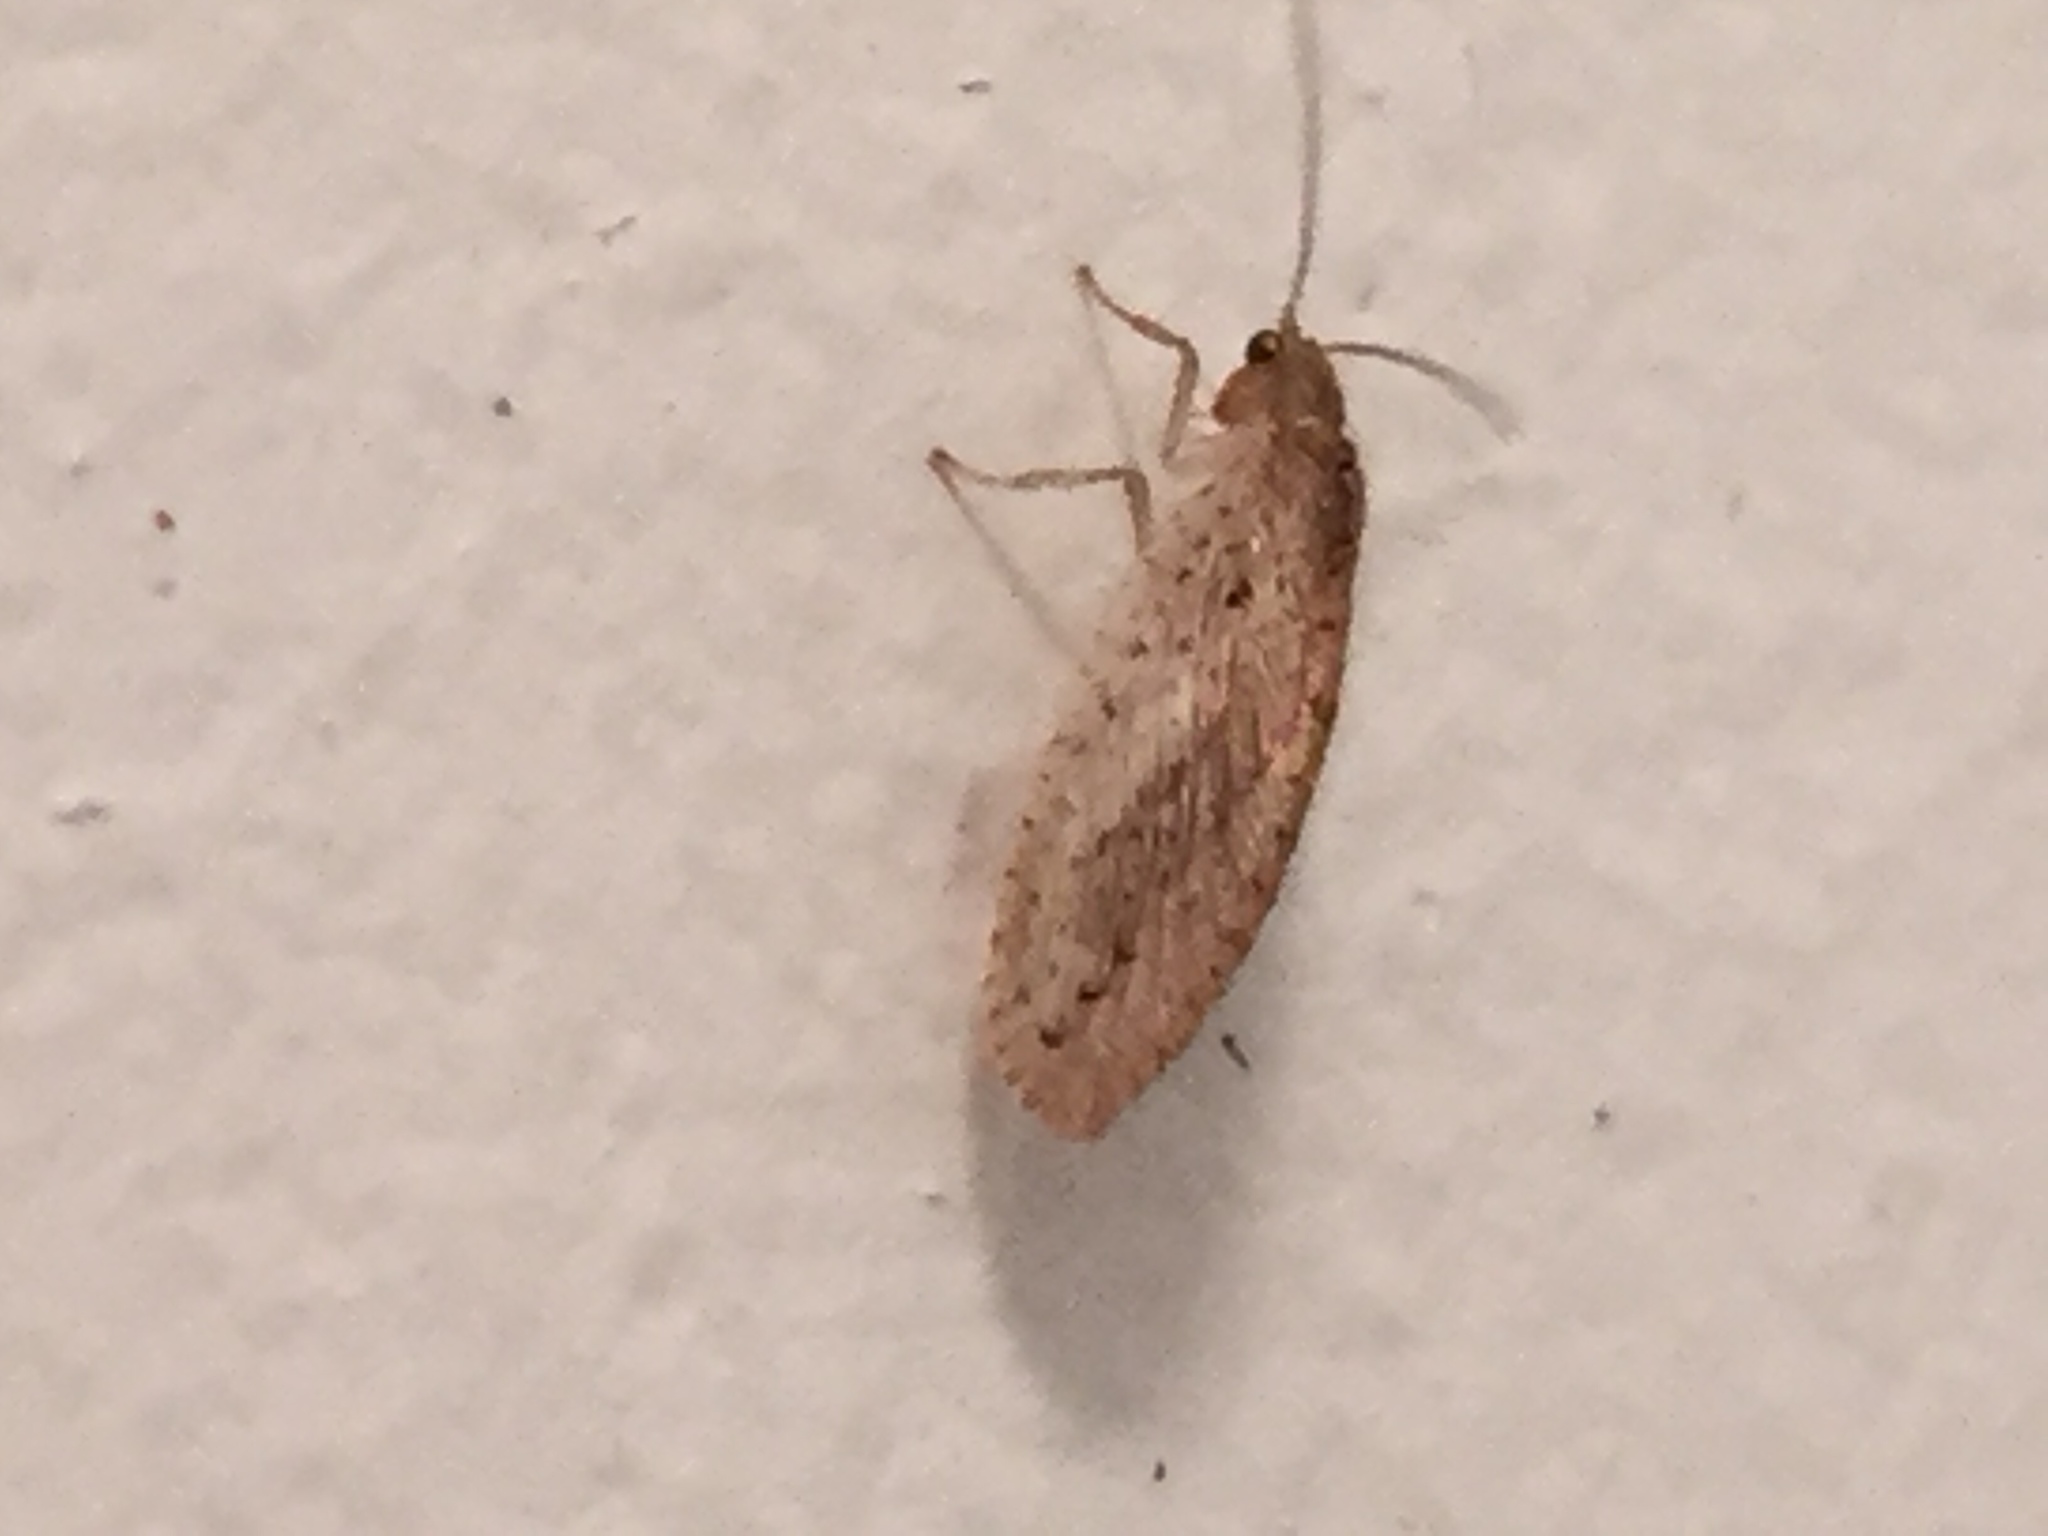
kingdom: Animalia
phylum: Arthropoda
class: Insecta
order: Neuroptera
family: Hemerobiidae
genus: Micromus
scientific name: Micromus tasmaniae
